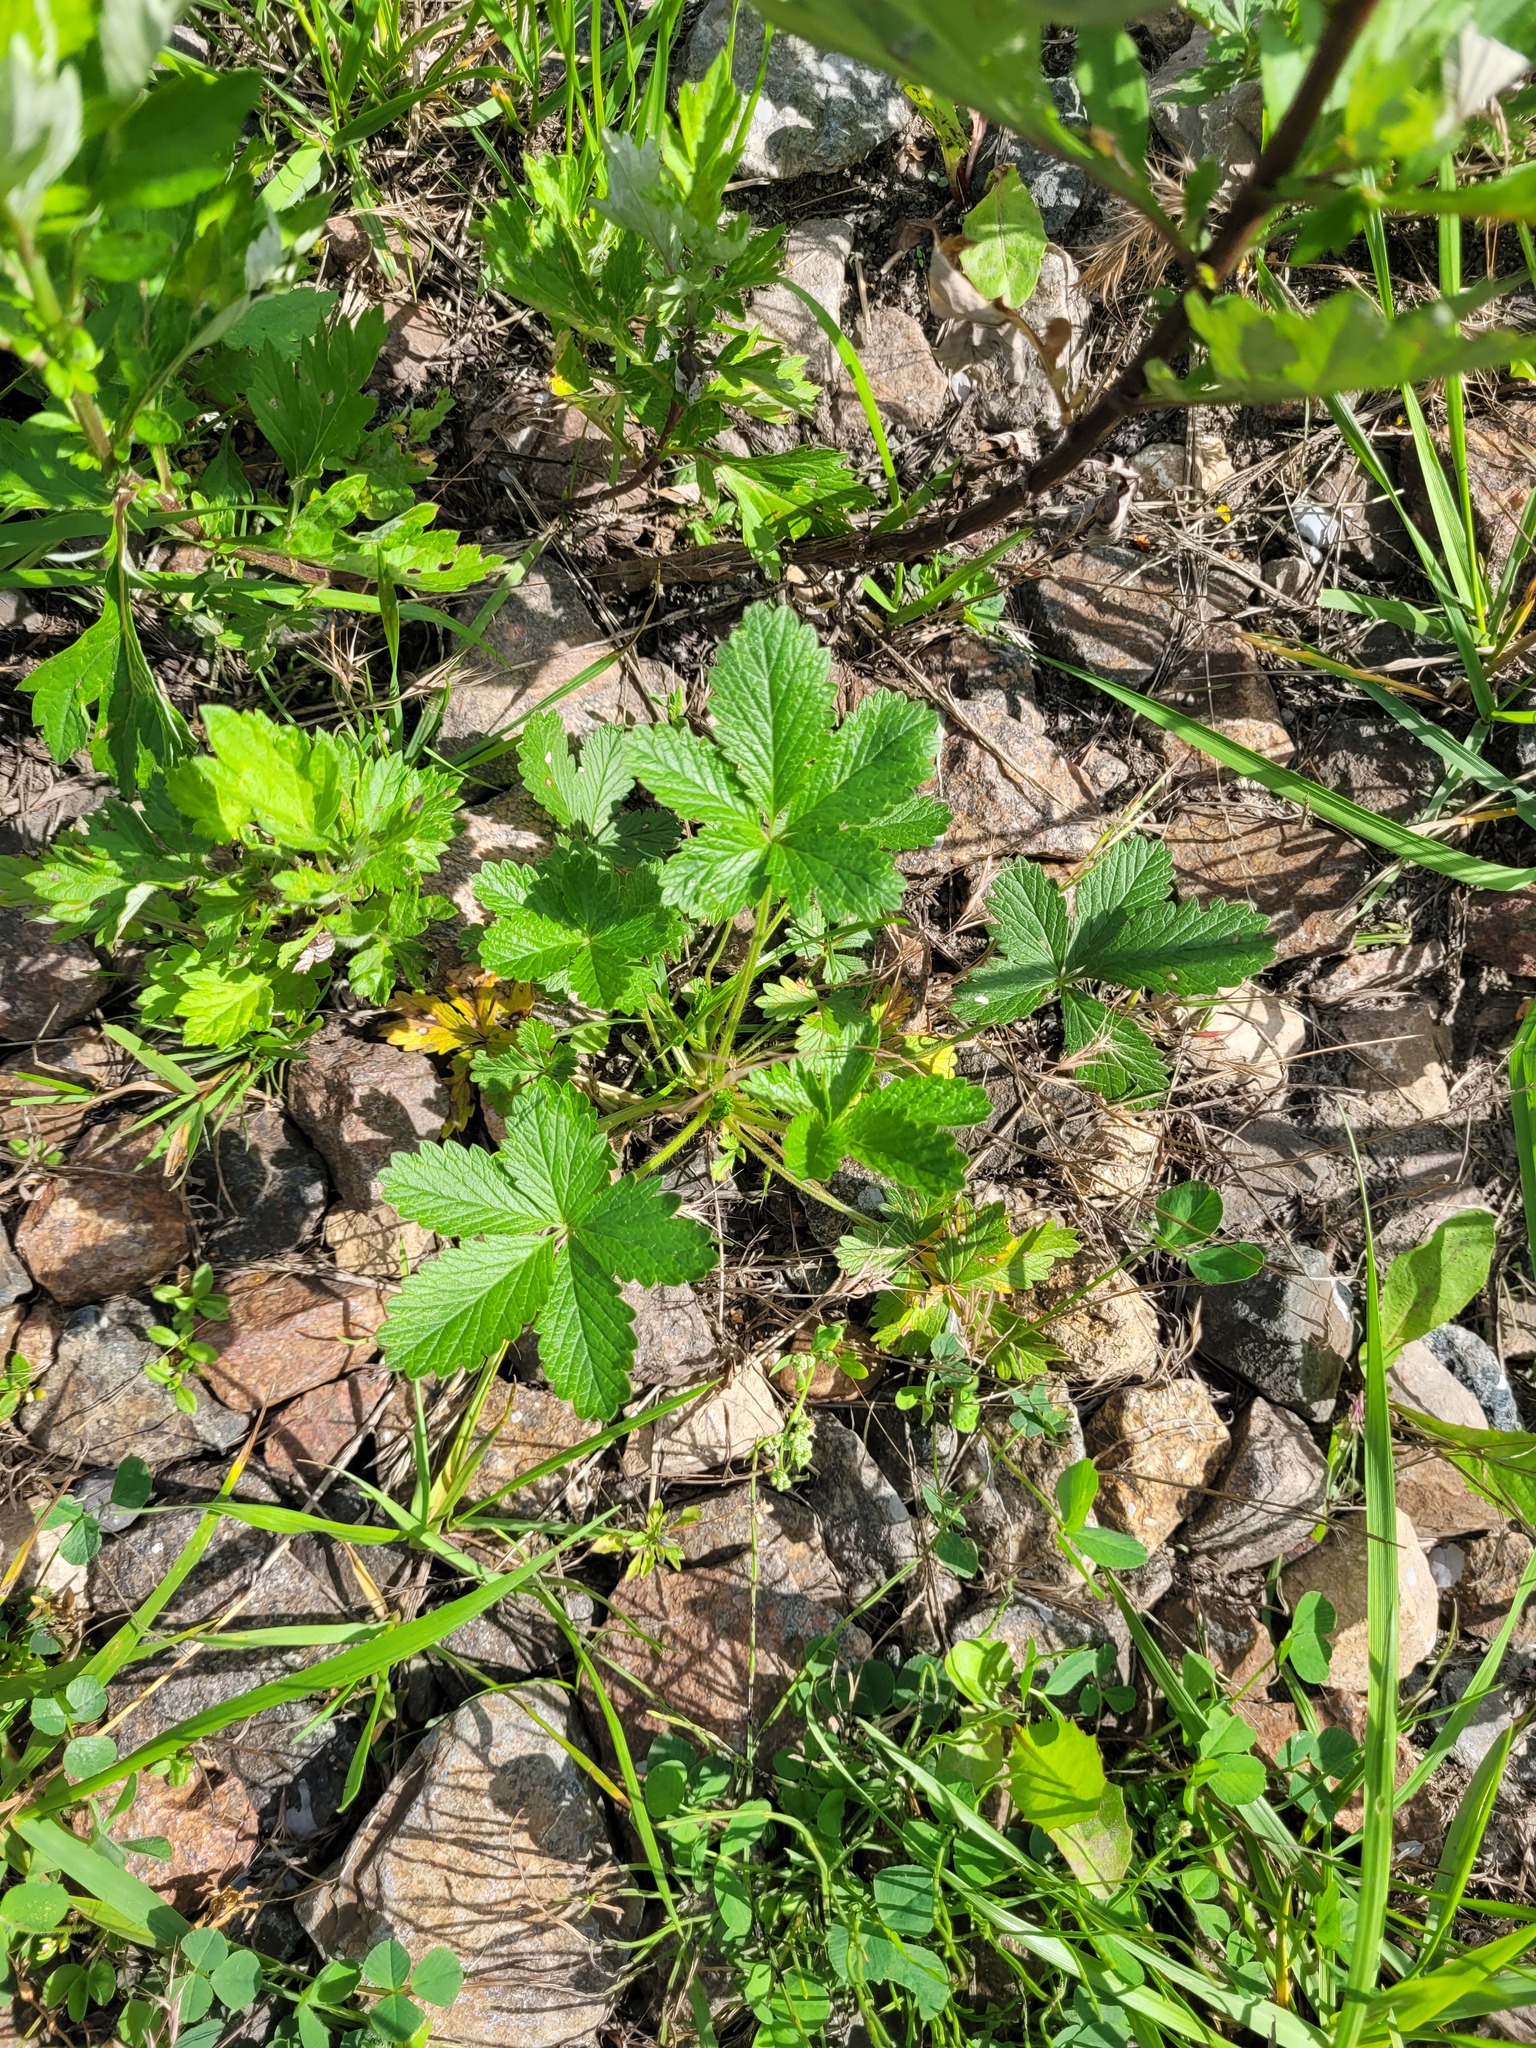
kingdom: Plantae
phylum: Tracheophyta
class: Magnoliopsida
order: Rosales
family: Rosaceae
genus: Potentilla
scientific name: Potentilla thuringiaca
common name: European cinquefoil
